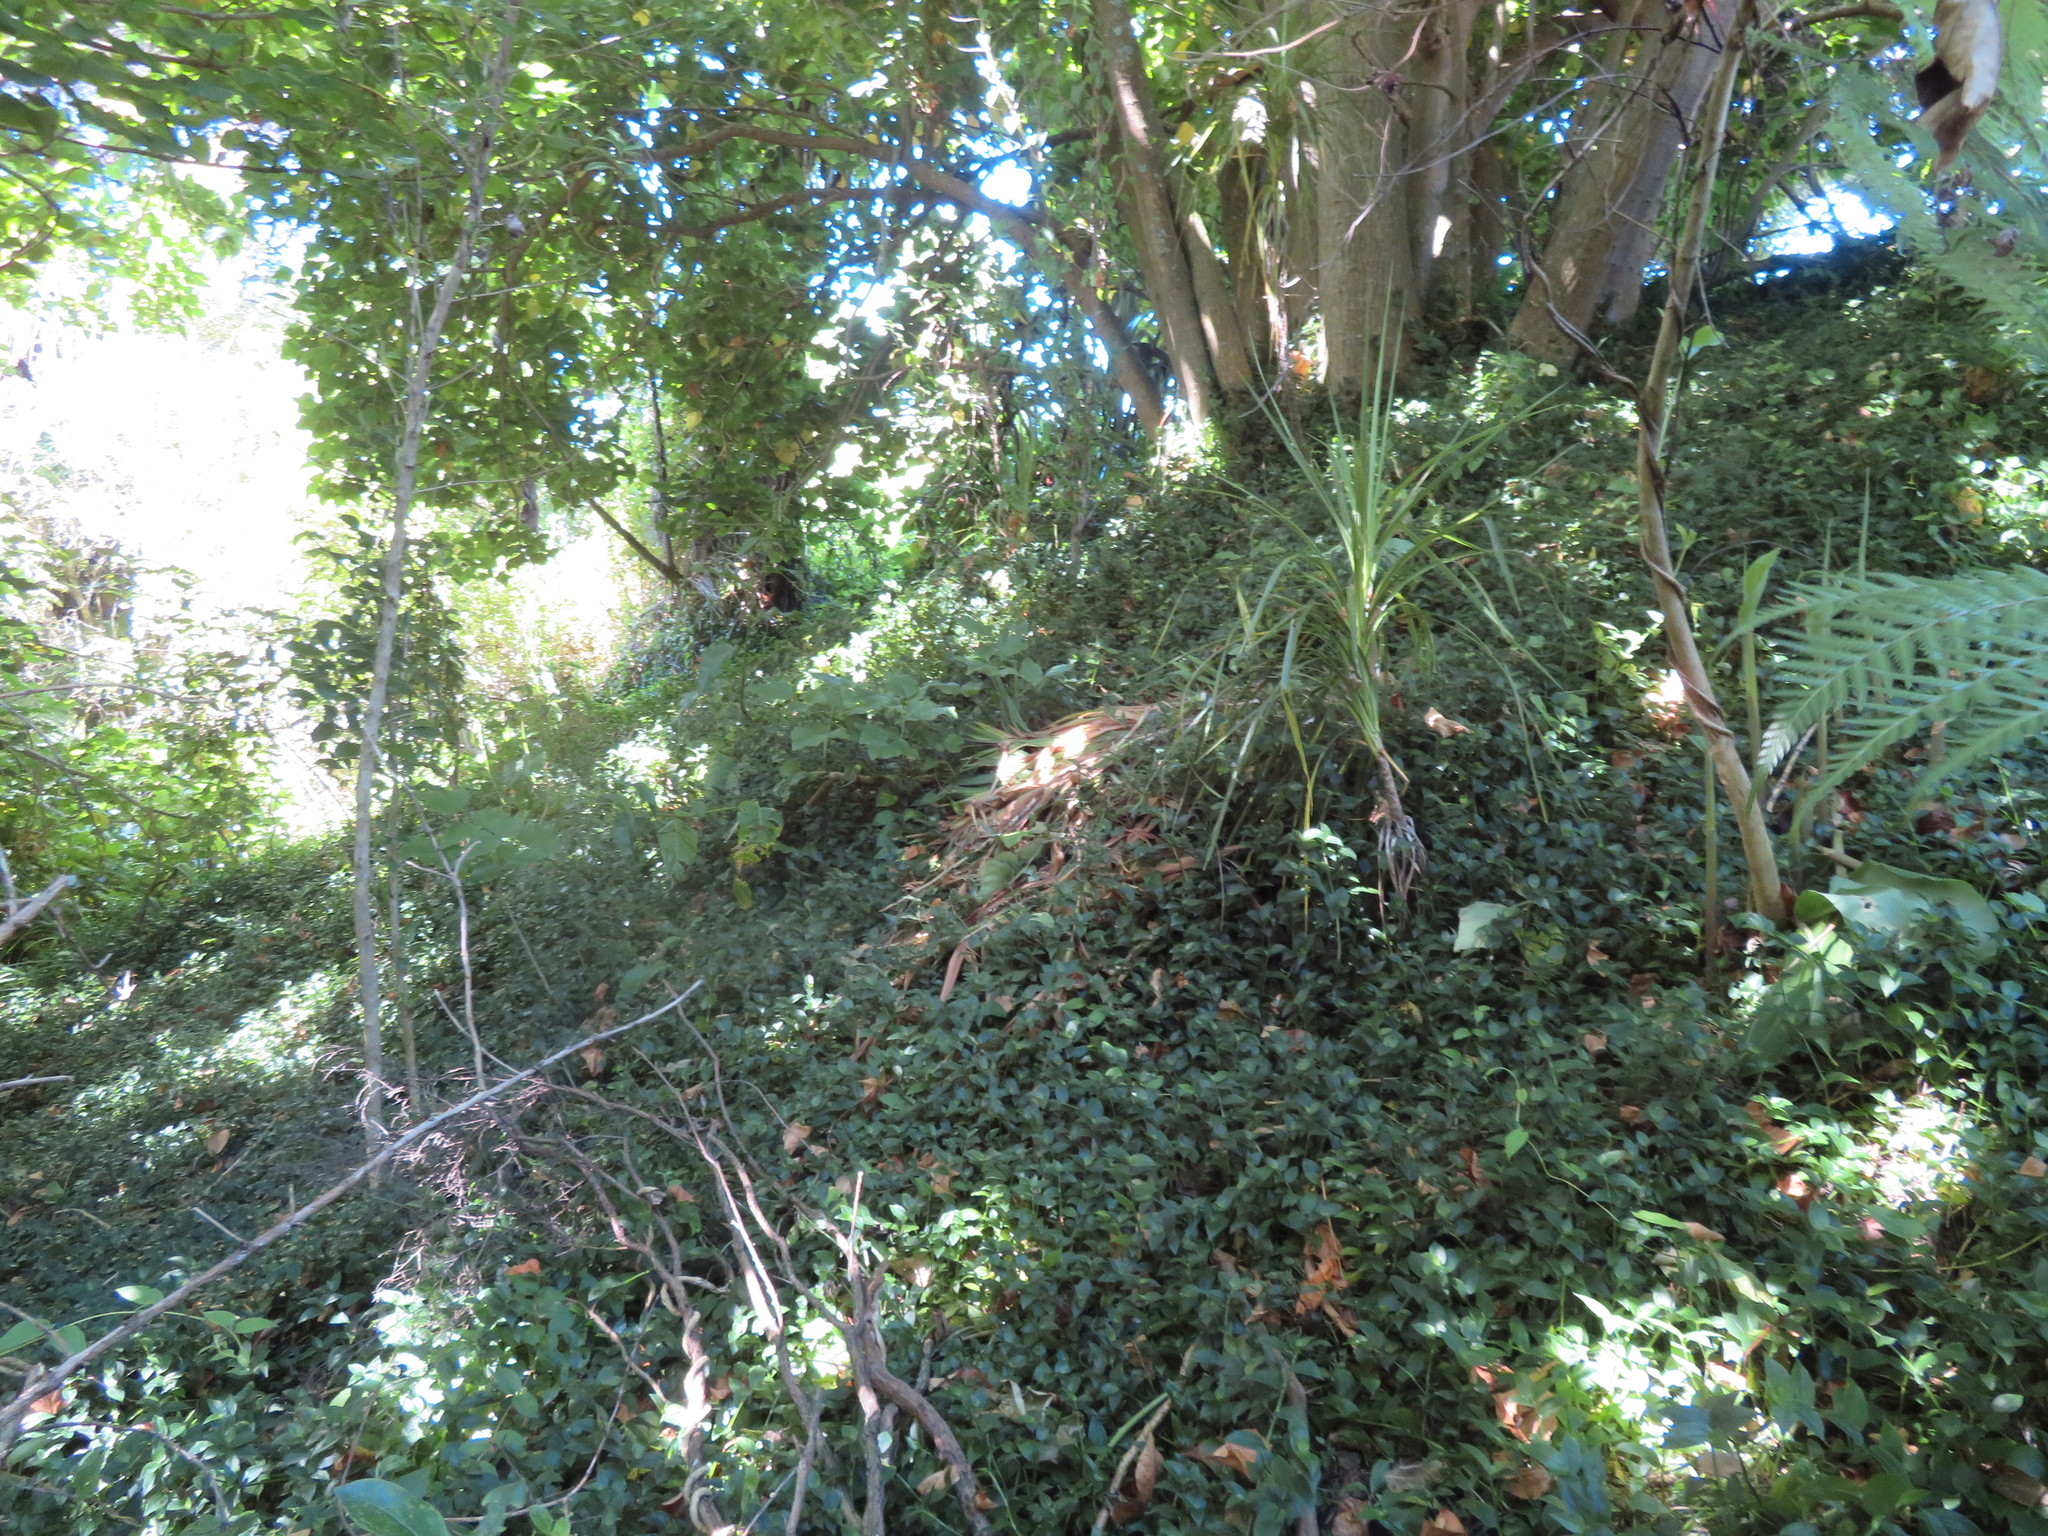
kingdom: Plantae
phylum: Tracheophyta
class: Liliopsida
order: Asparagales
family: Asparagaceae
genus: Cordyline
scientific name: Cordyline australis
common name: Cabbage-palm
